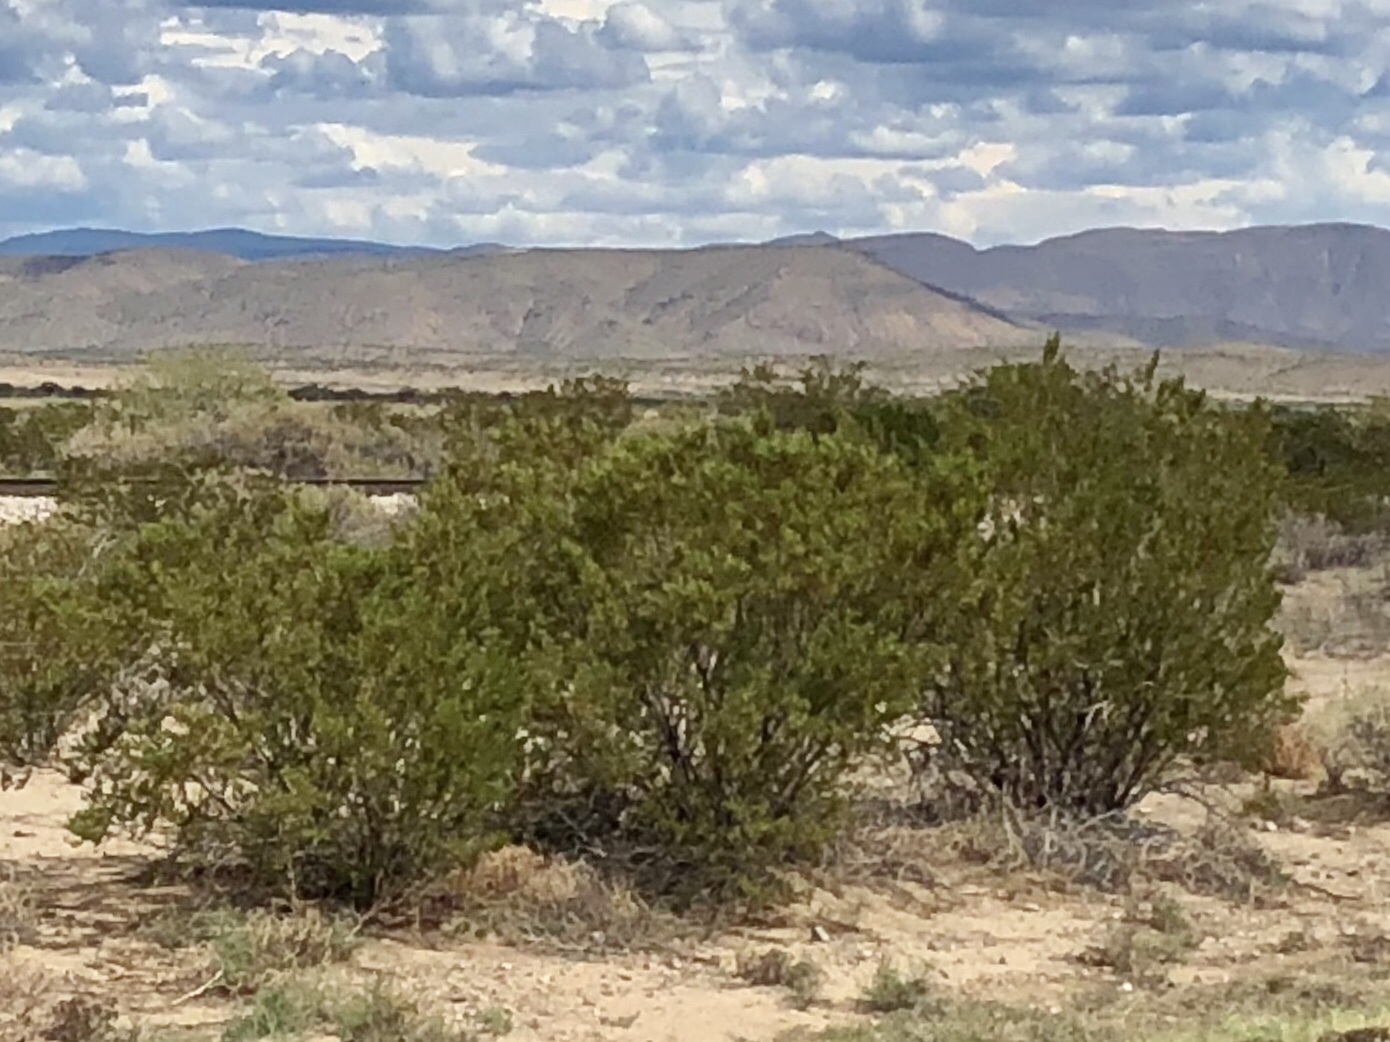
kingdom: Plantae
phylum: Tracheophyta
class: Magnoliopsida
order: Zygophyllales
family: Zygophyllaceae
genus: Larrea
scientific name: Larrea tridentata
